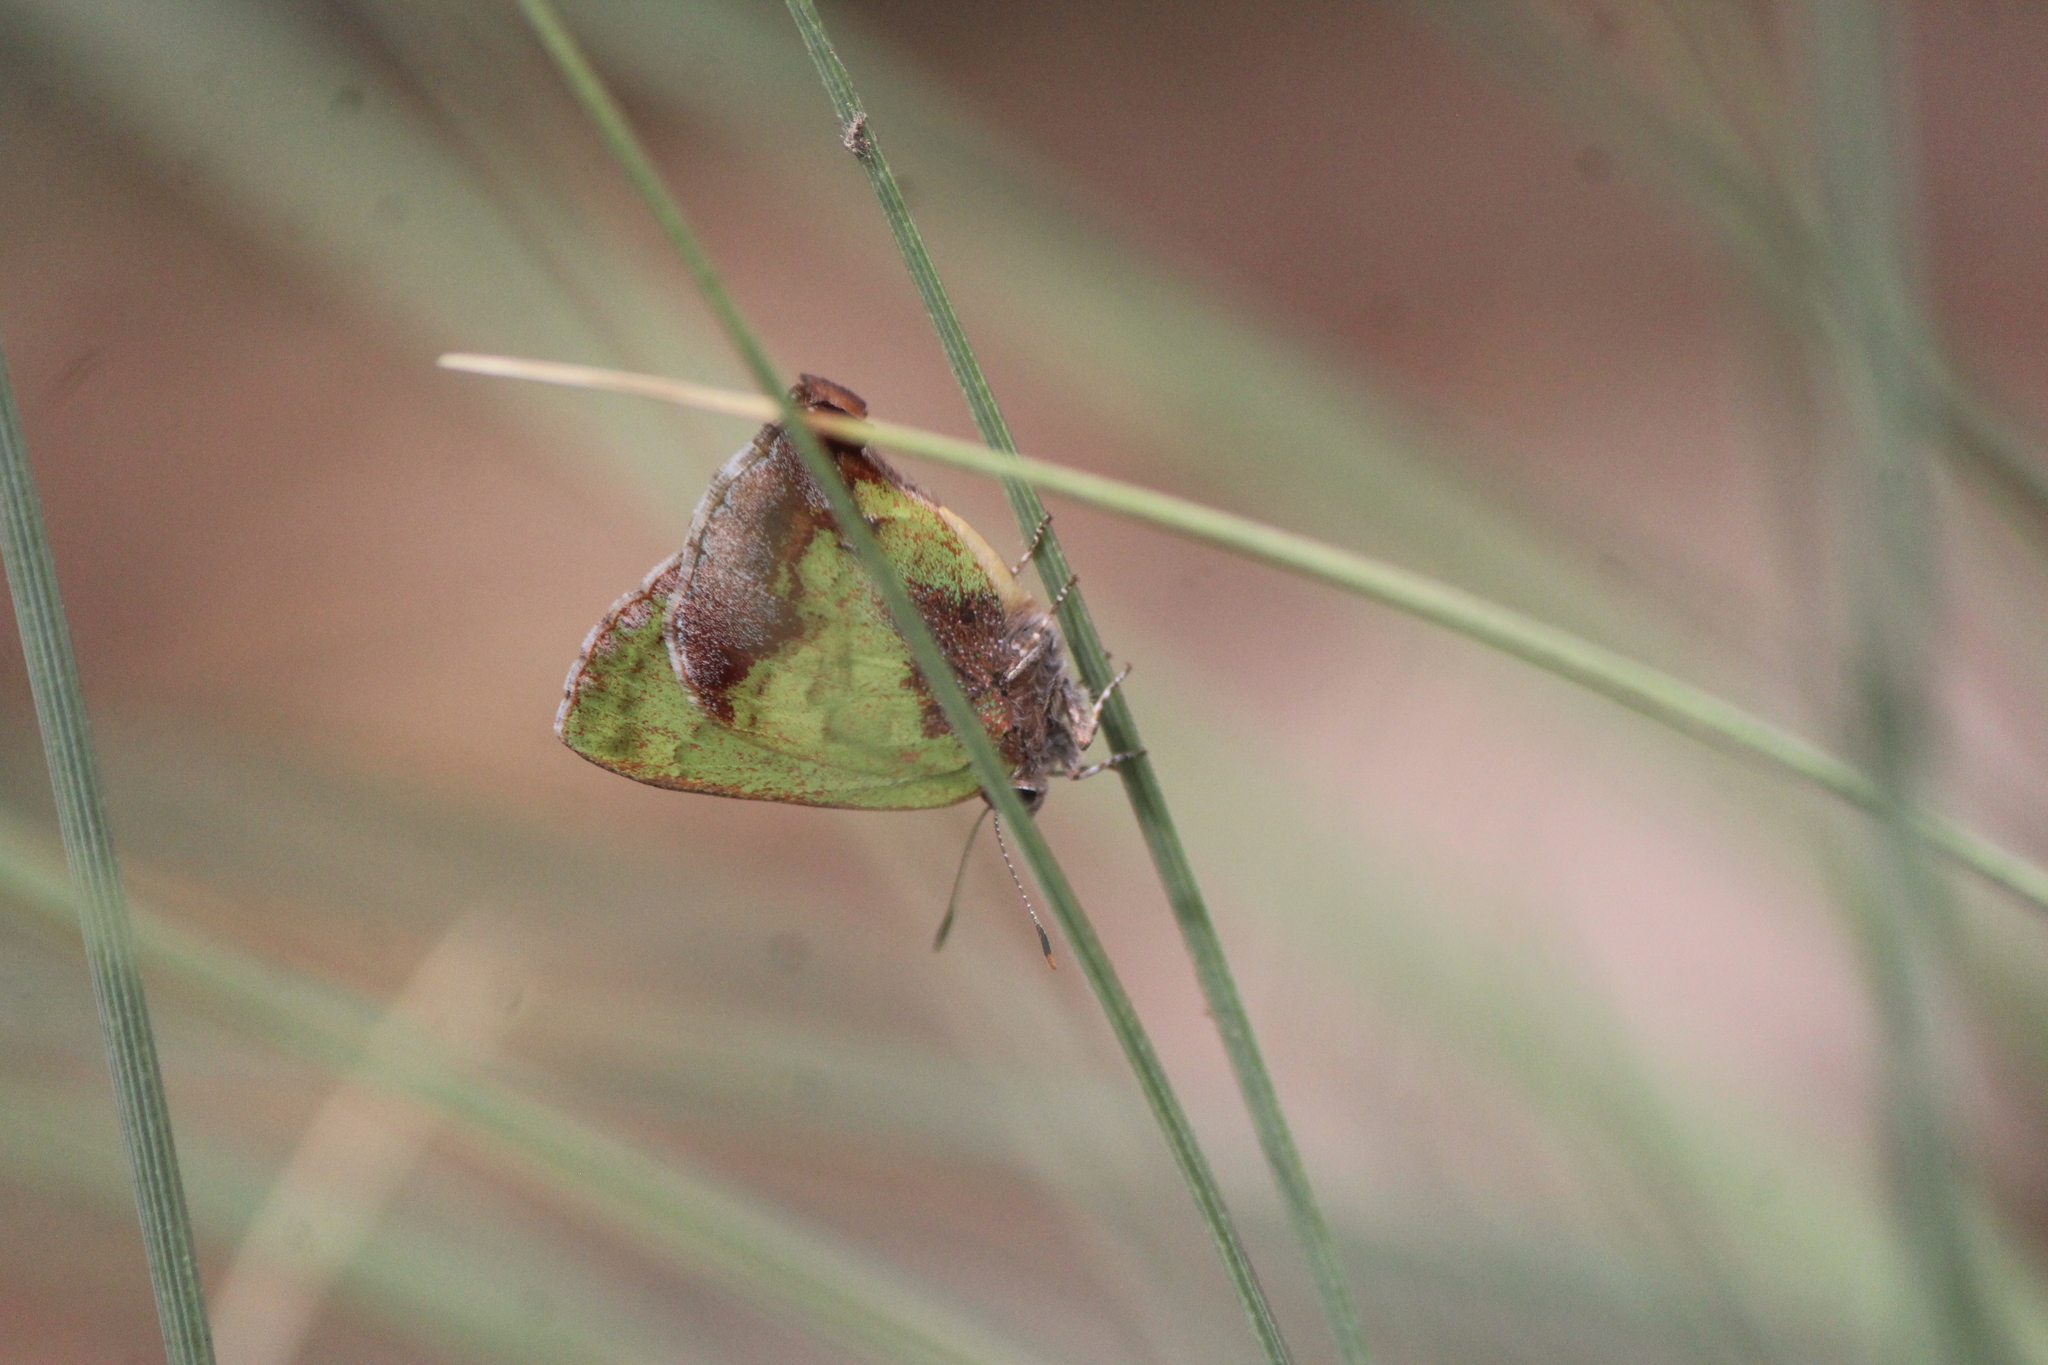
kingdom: Animalia
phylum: Arthropoda
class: Insecta
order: Lepidoptera
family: Lycaenidae
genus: Cyanophrys
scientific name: Cyanophrys agricolor
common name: Stained greenstreak
